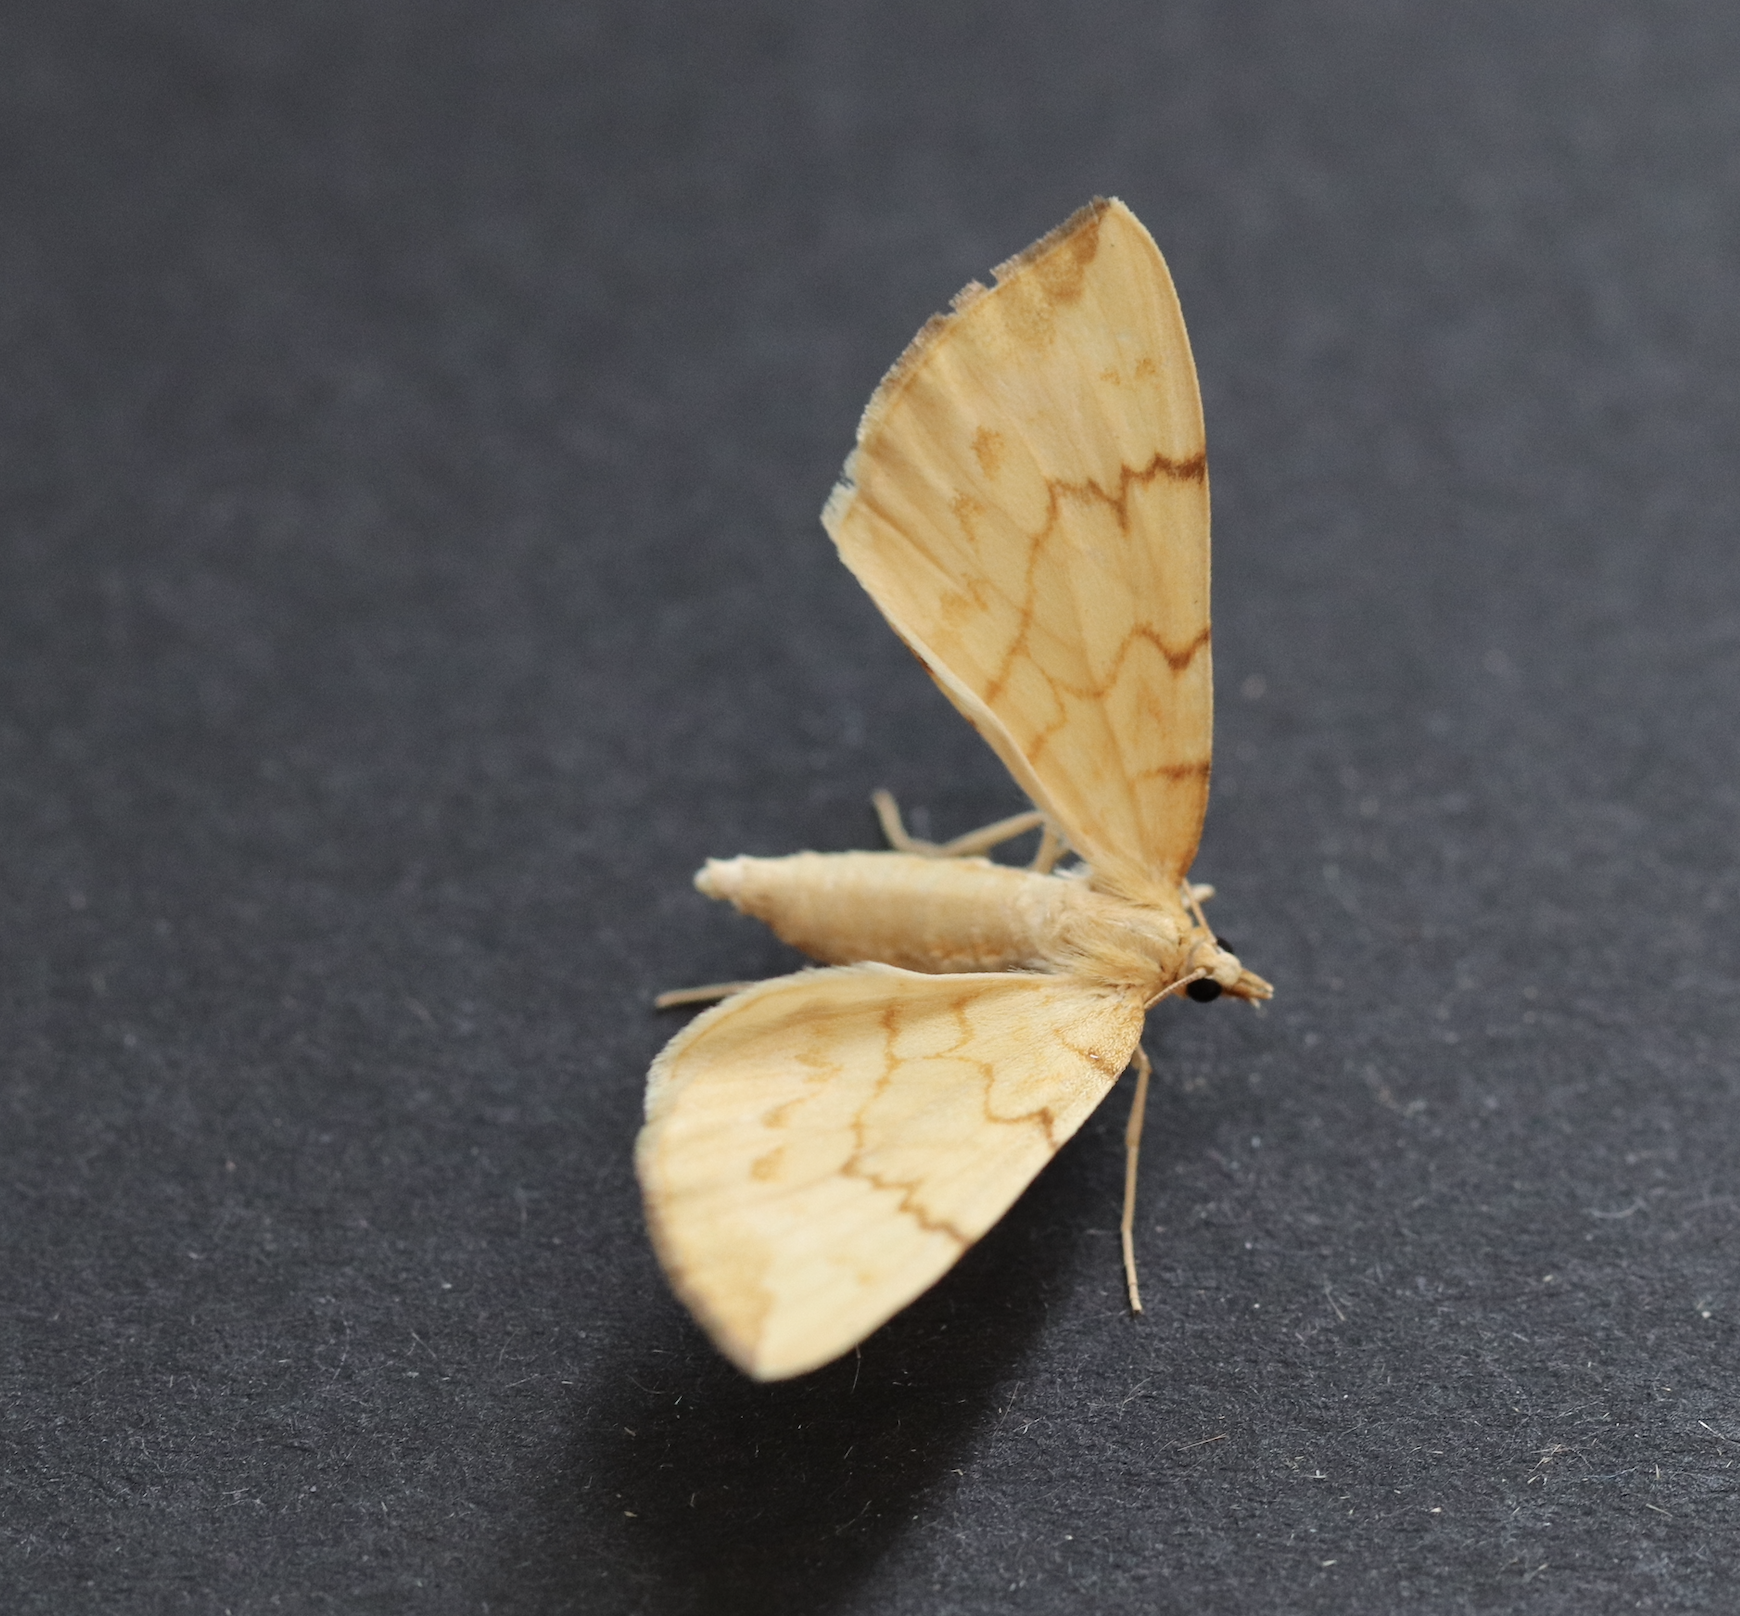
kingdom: Animalia
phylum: Arthropoda
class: Insecta
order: Lepidoptera
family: Geometridae
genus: Eulithis
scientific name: Eulithis pyraliata
